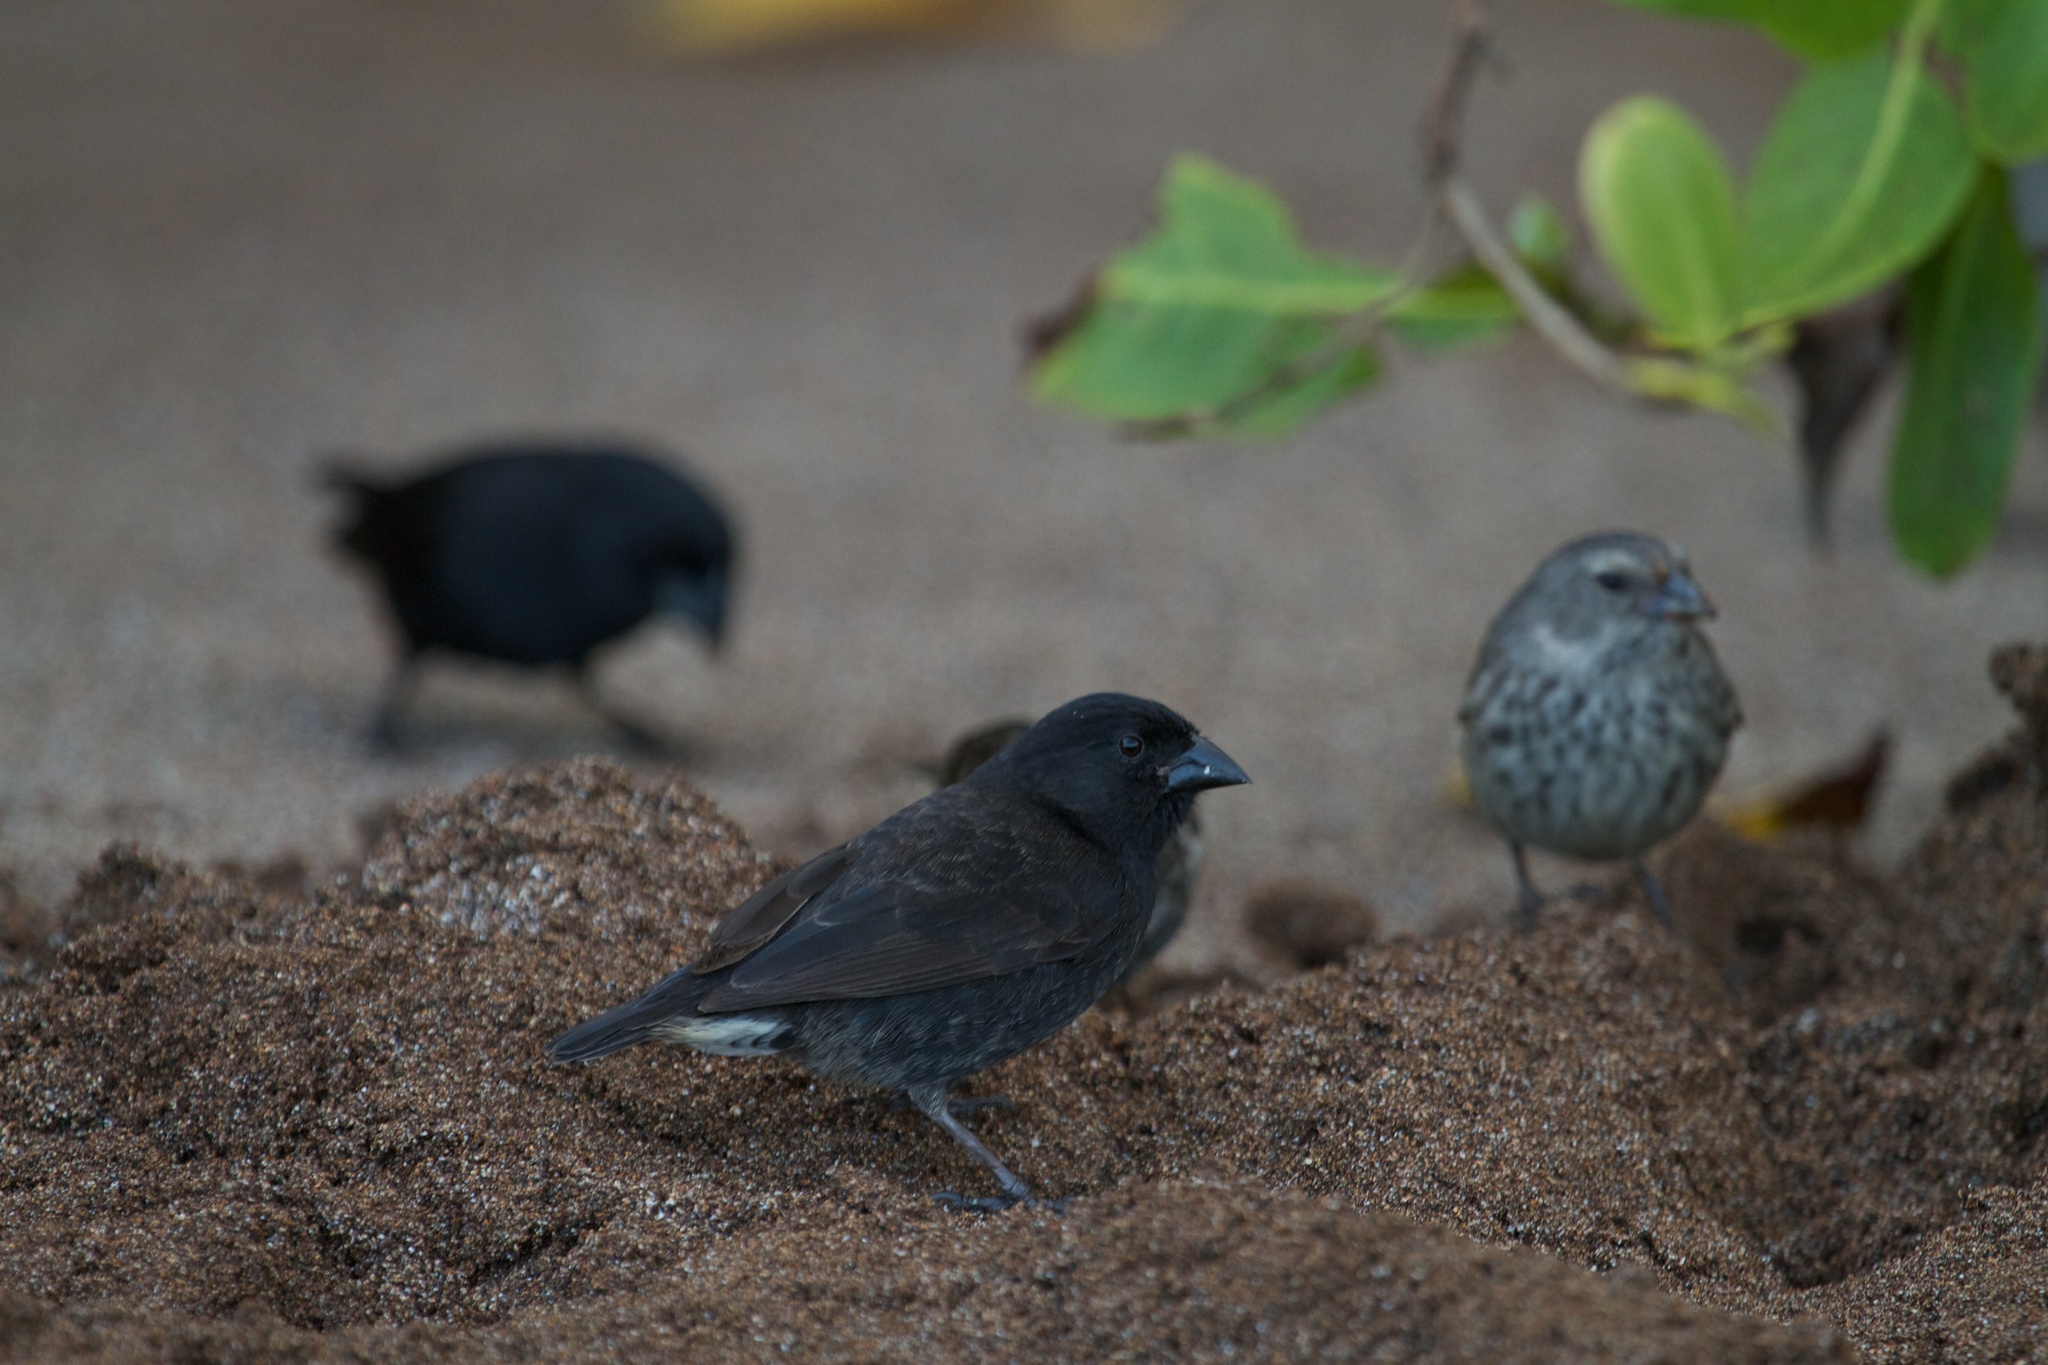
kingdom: Animalia
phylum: Chordata
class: Aves
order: Passeriformes
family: Thraupidae
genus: Geospiza
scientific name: Geospiza fortis
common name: Medium ground finch
